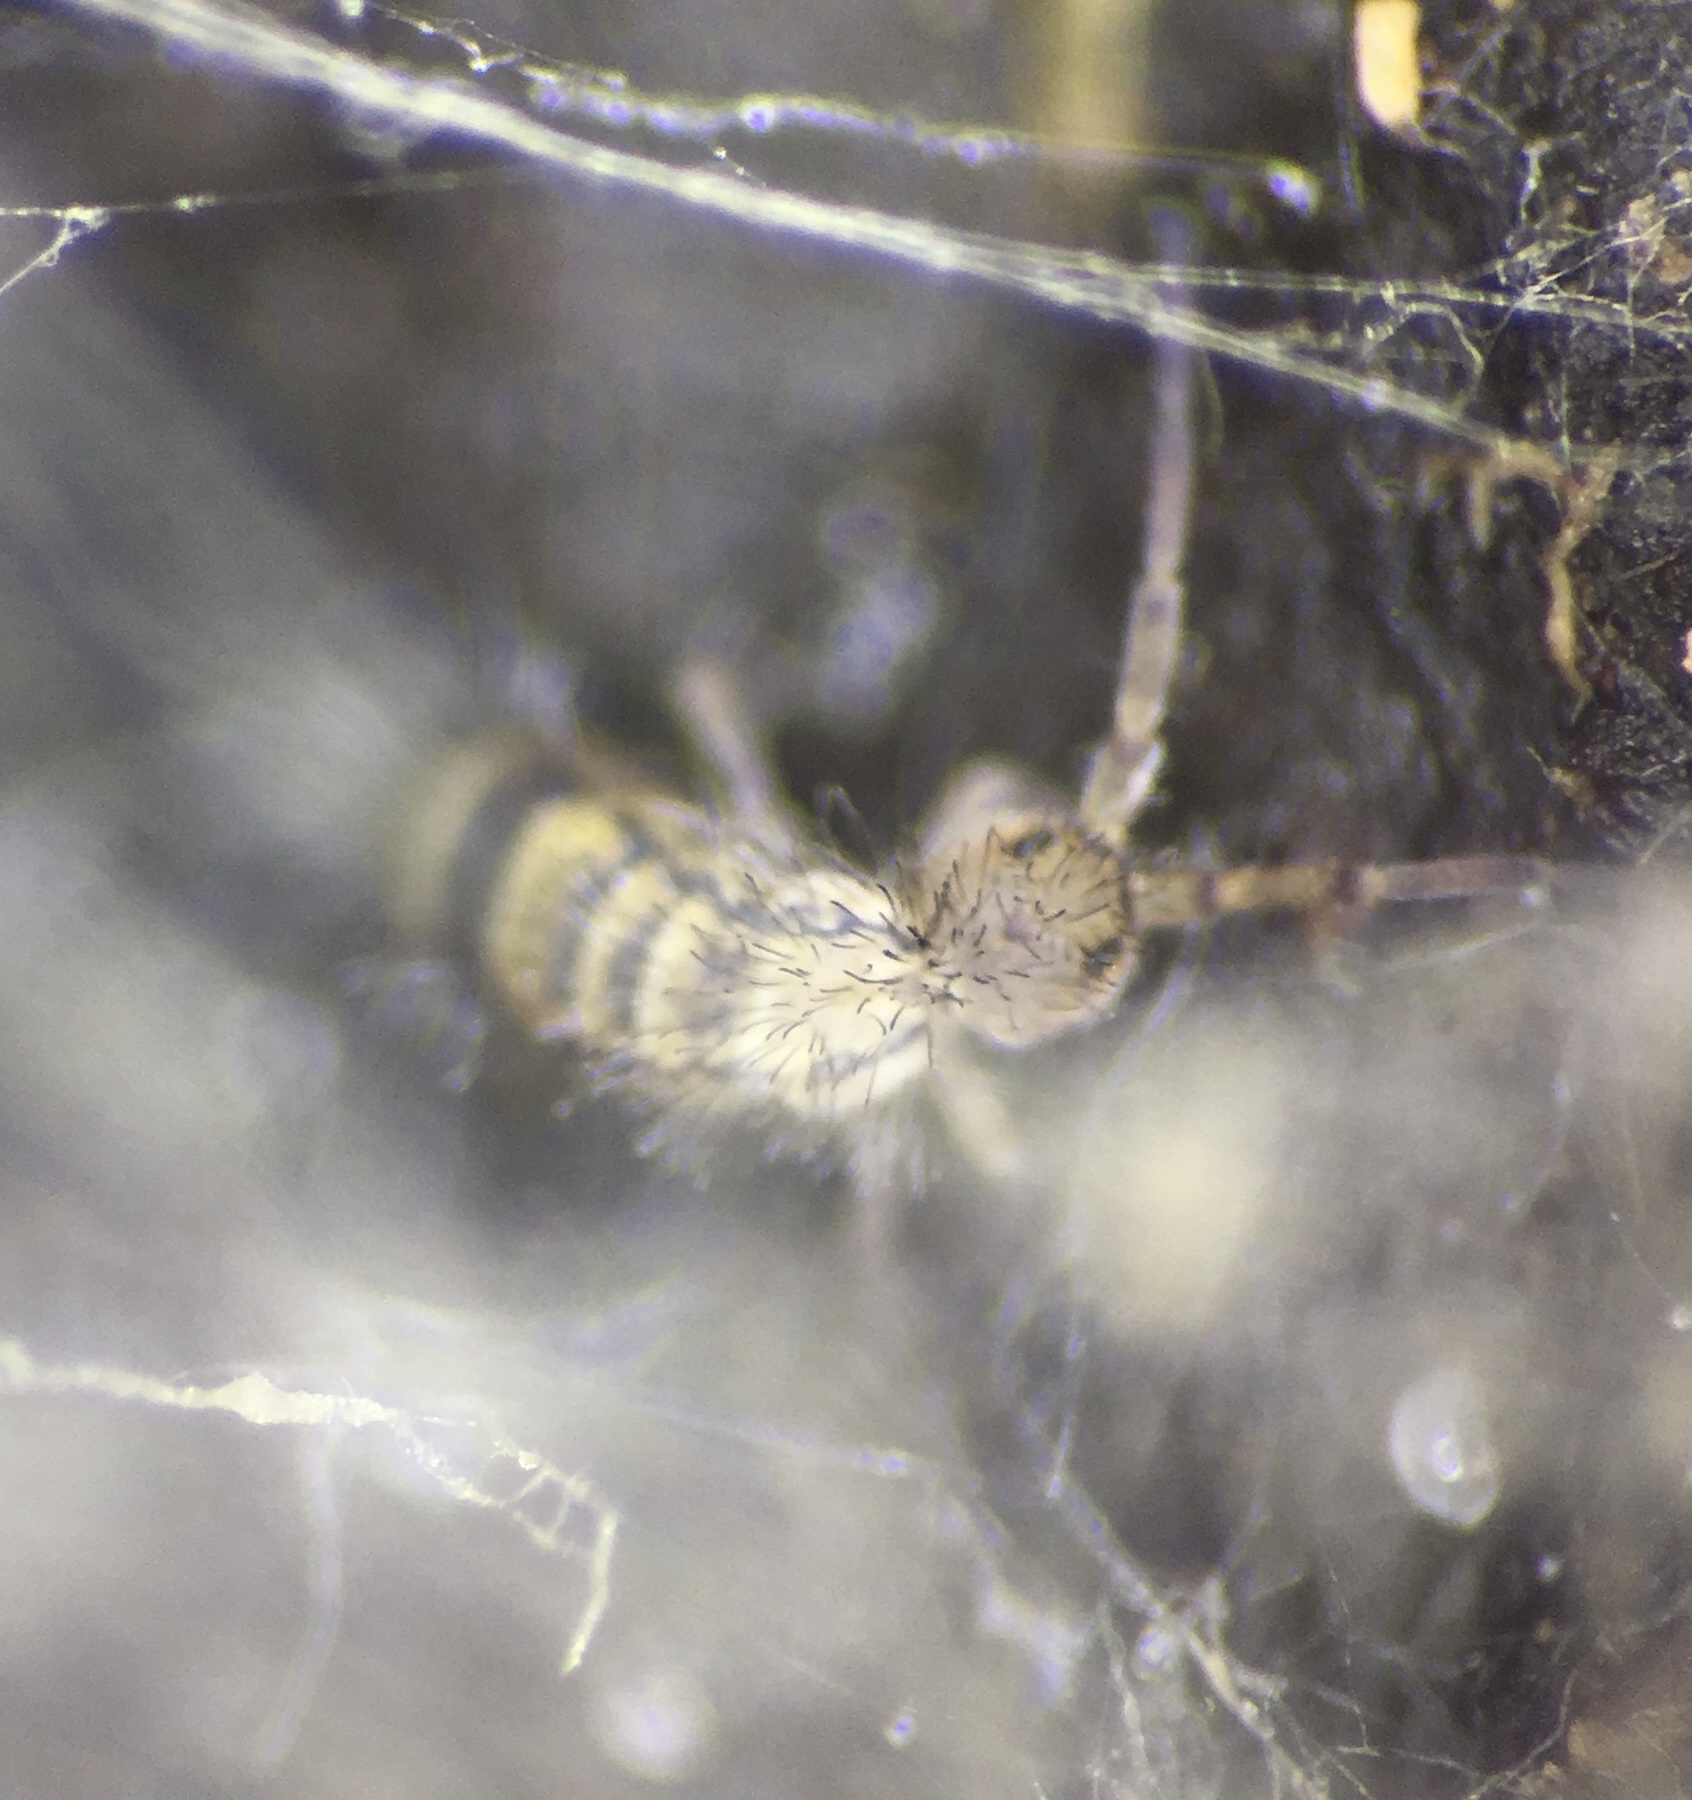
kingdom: Animalia
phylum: Arthropoda
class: Collembola
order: Entomobryomorpha
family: Orchesellidae
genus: Orchesella
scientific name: Orchesella cincta
